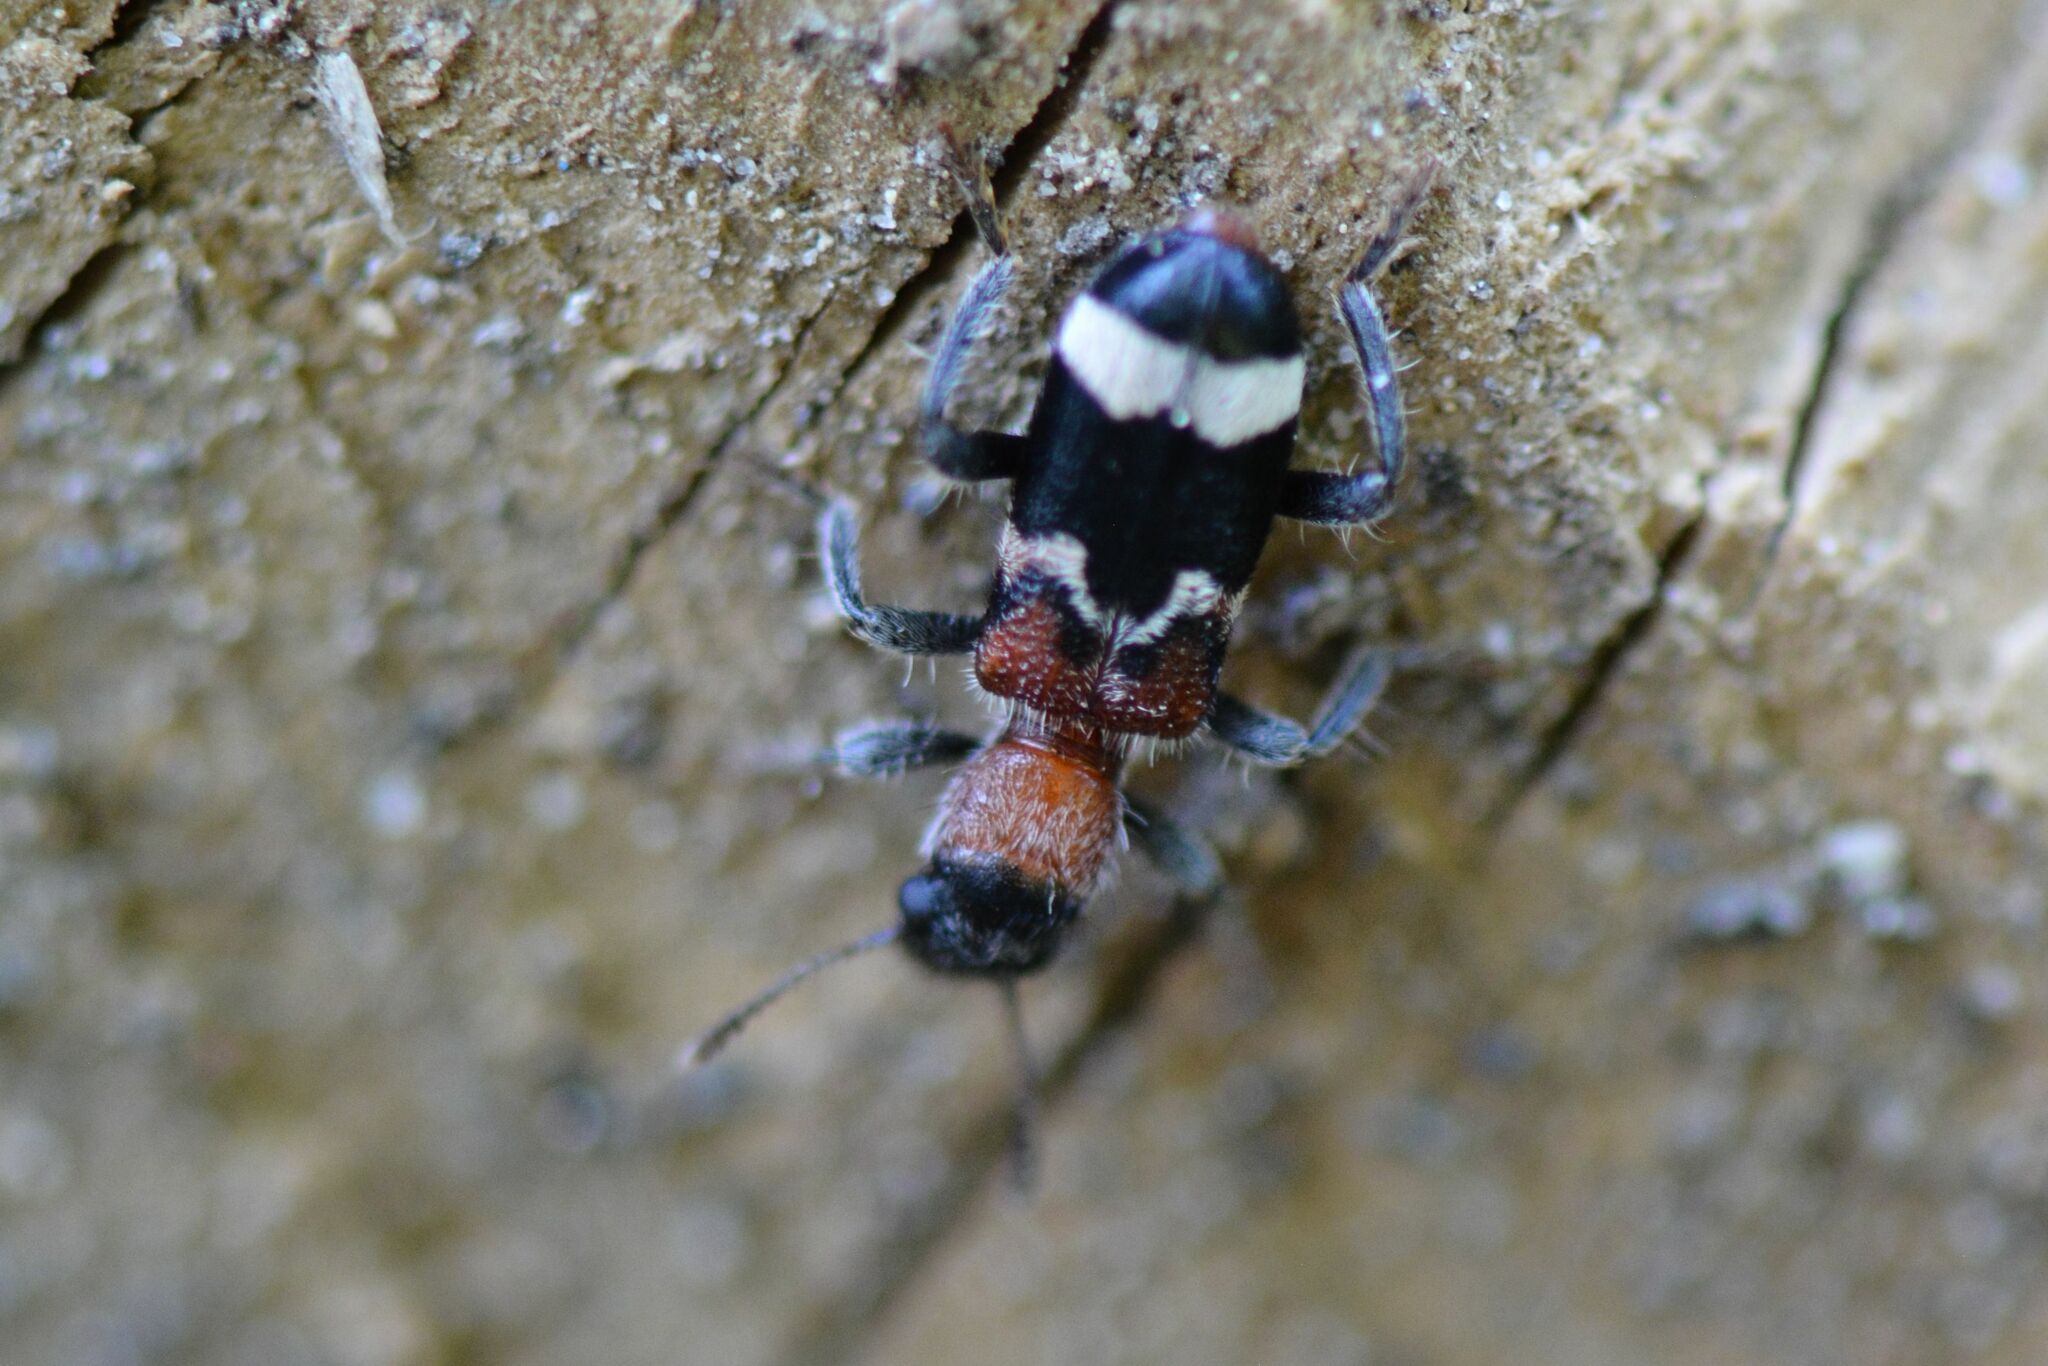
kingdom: Animalia
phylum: Arthropoda
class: Insecta
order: Coleoptera
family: Cleridae
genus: Thanasimus
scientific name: Thanasimus formicarius
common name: Ant beetle
